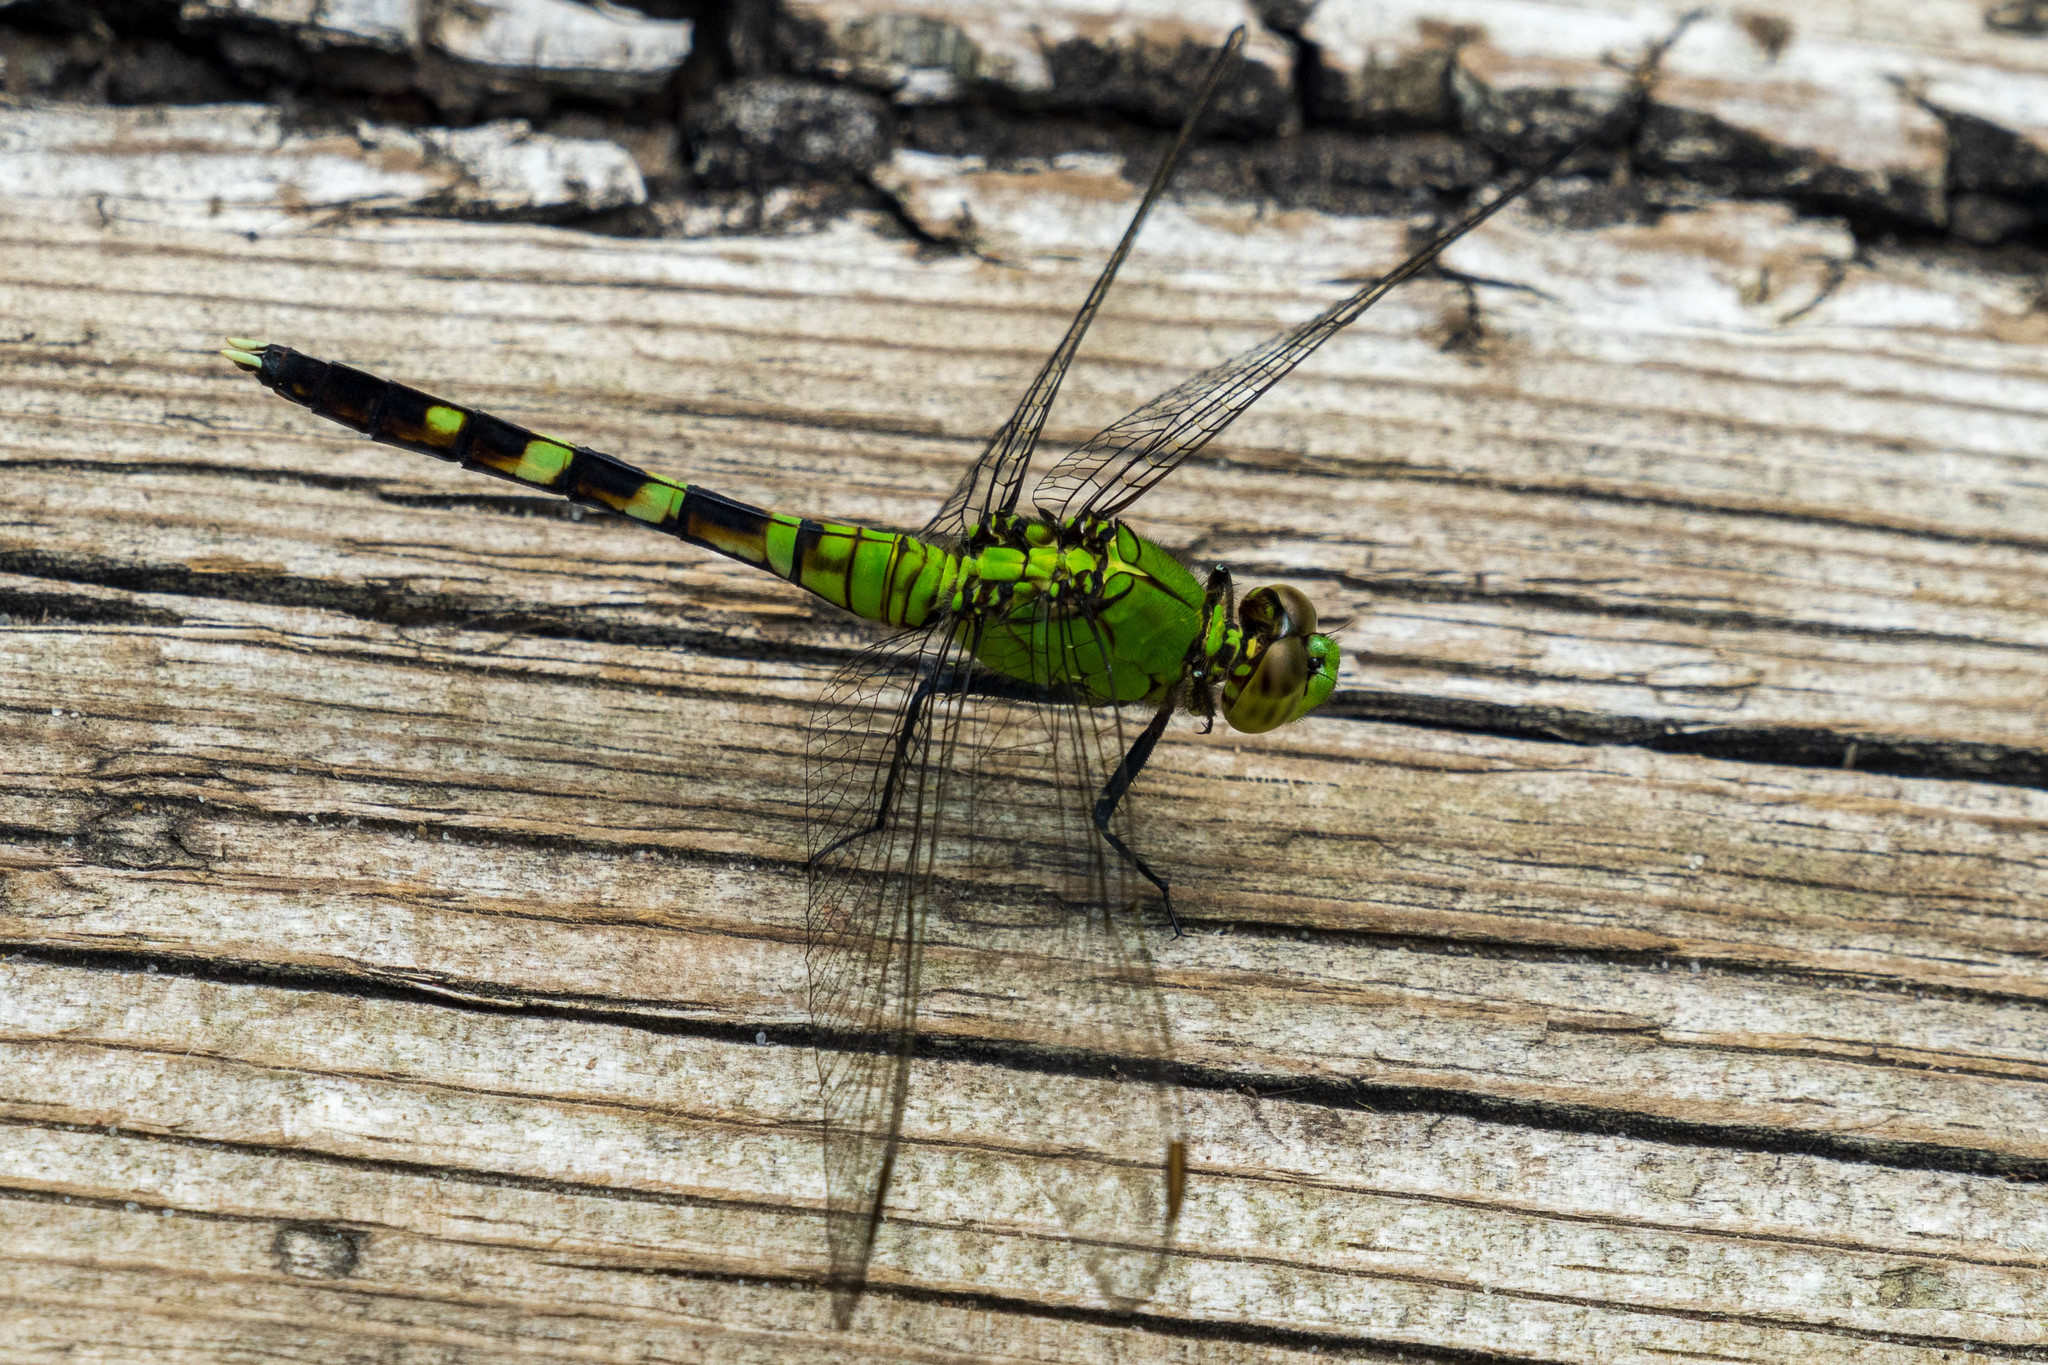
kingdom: Animalia
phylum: Arthropoda
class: Insecta
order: Odonata
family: Libellulidae
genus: Erythemis
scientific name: Erythemis simplicicollis
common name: Eastern pondhawk
